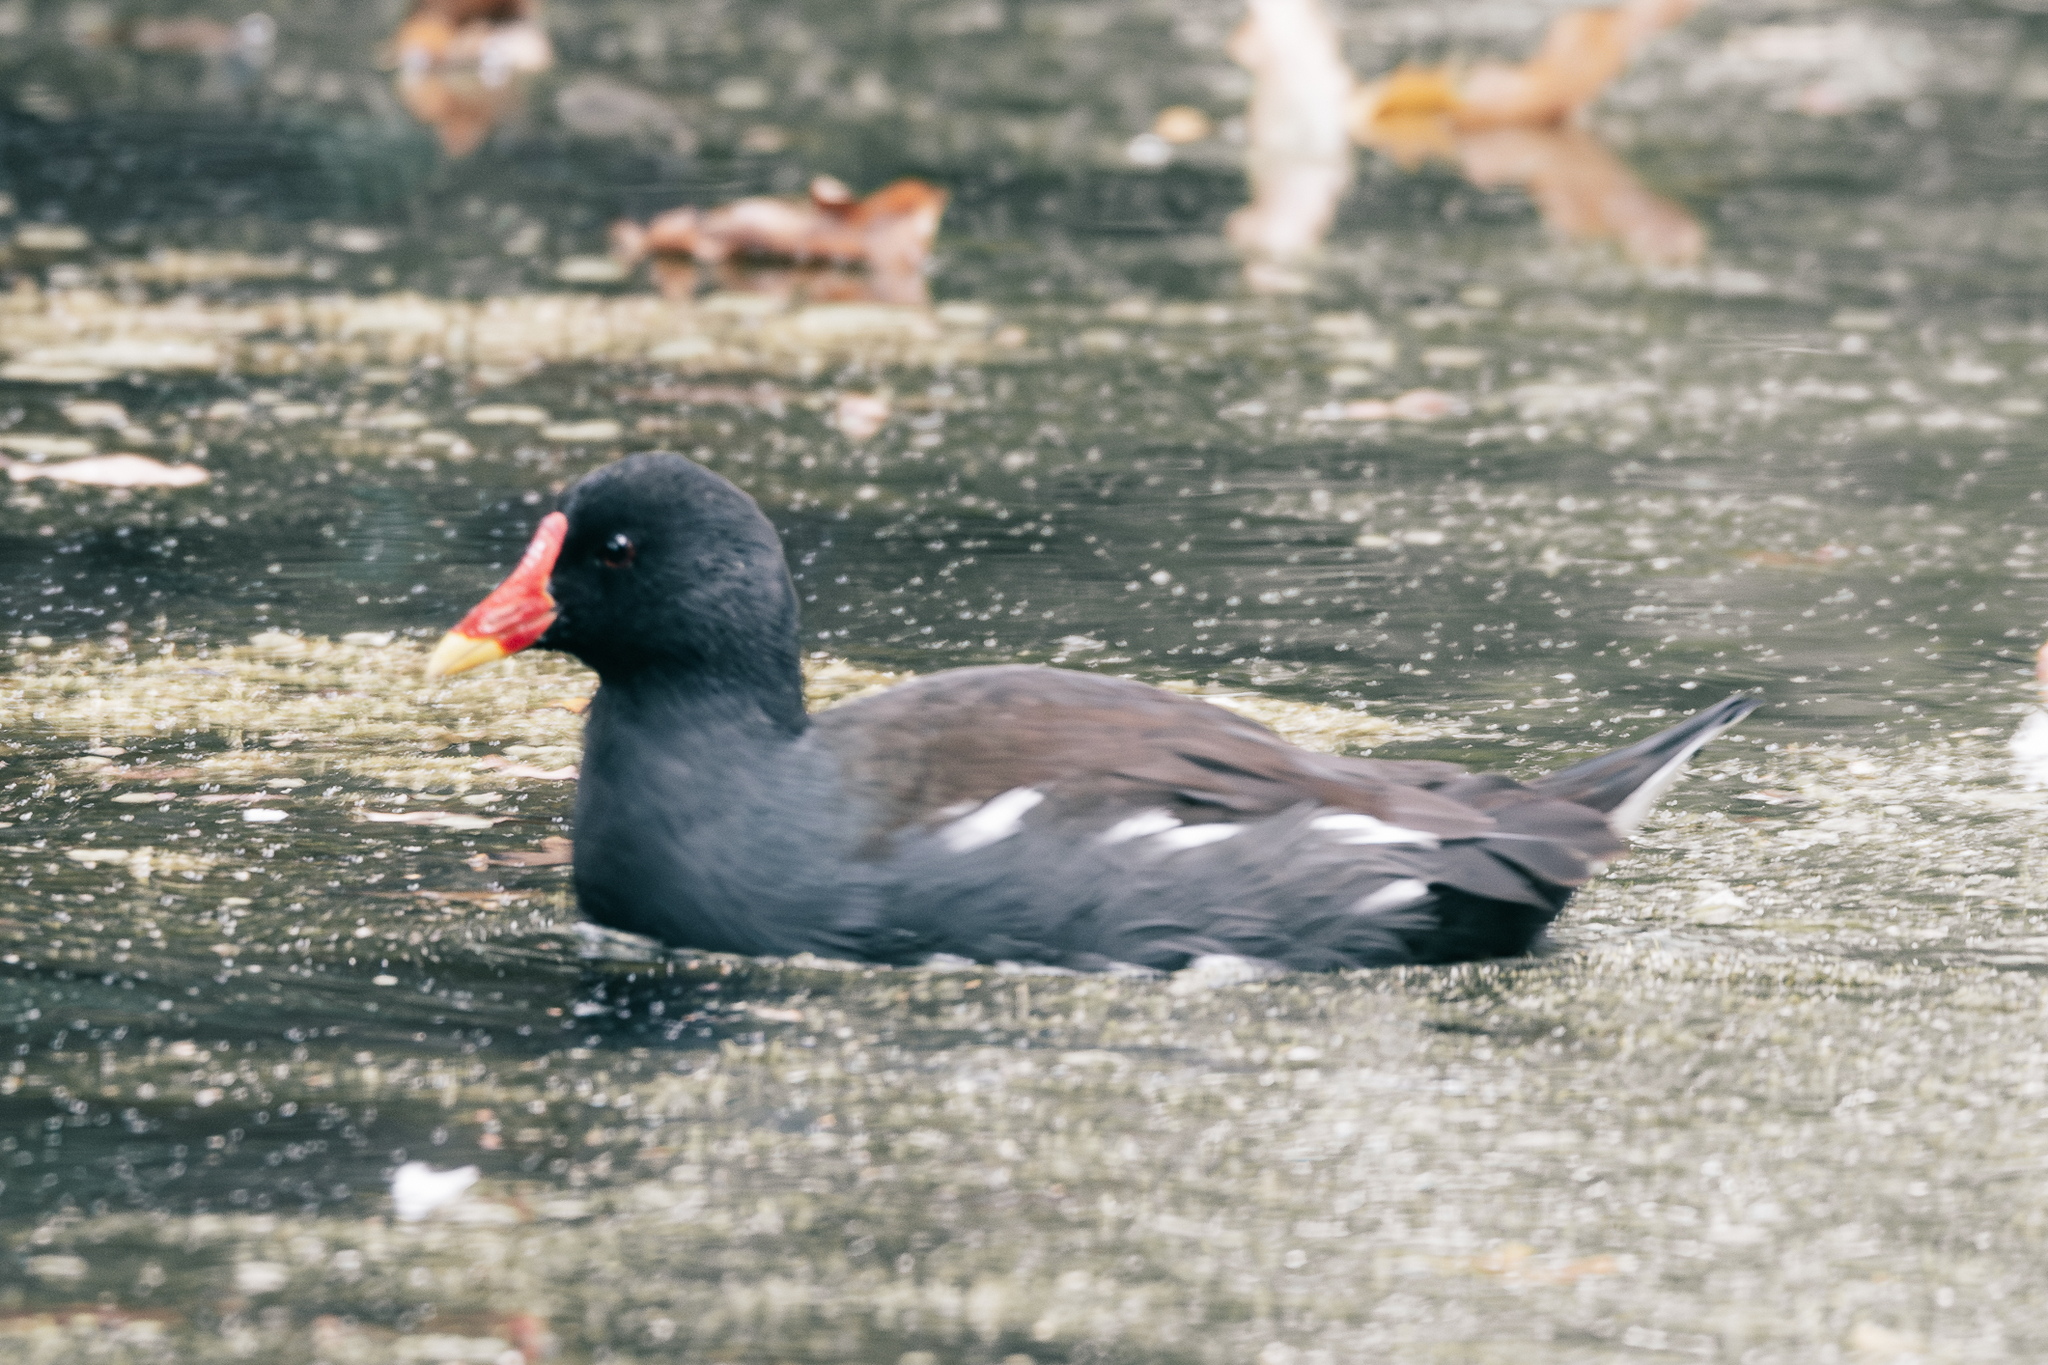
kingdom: Animalia
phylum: Chordata
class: Aves
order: Gruiformes
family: Rallidae
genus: Gallinula
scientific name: Gallinula chloropus
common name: Common moorhen
